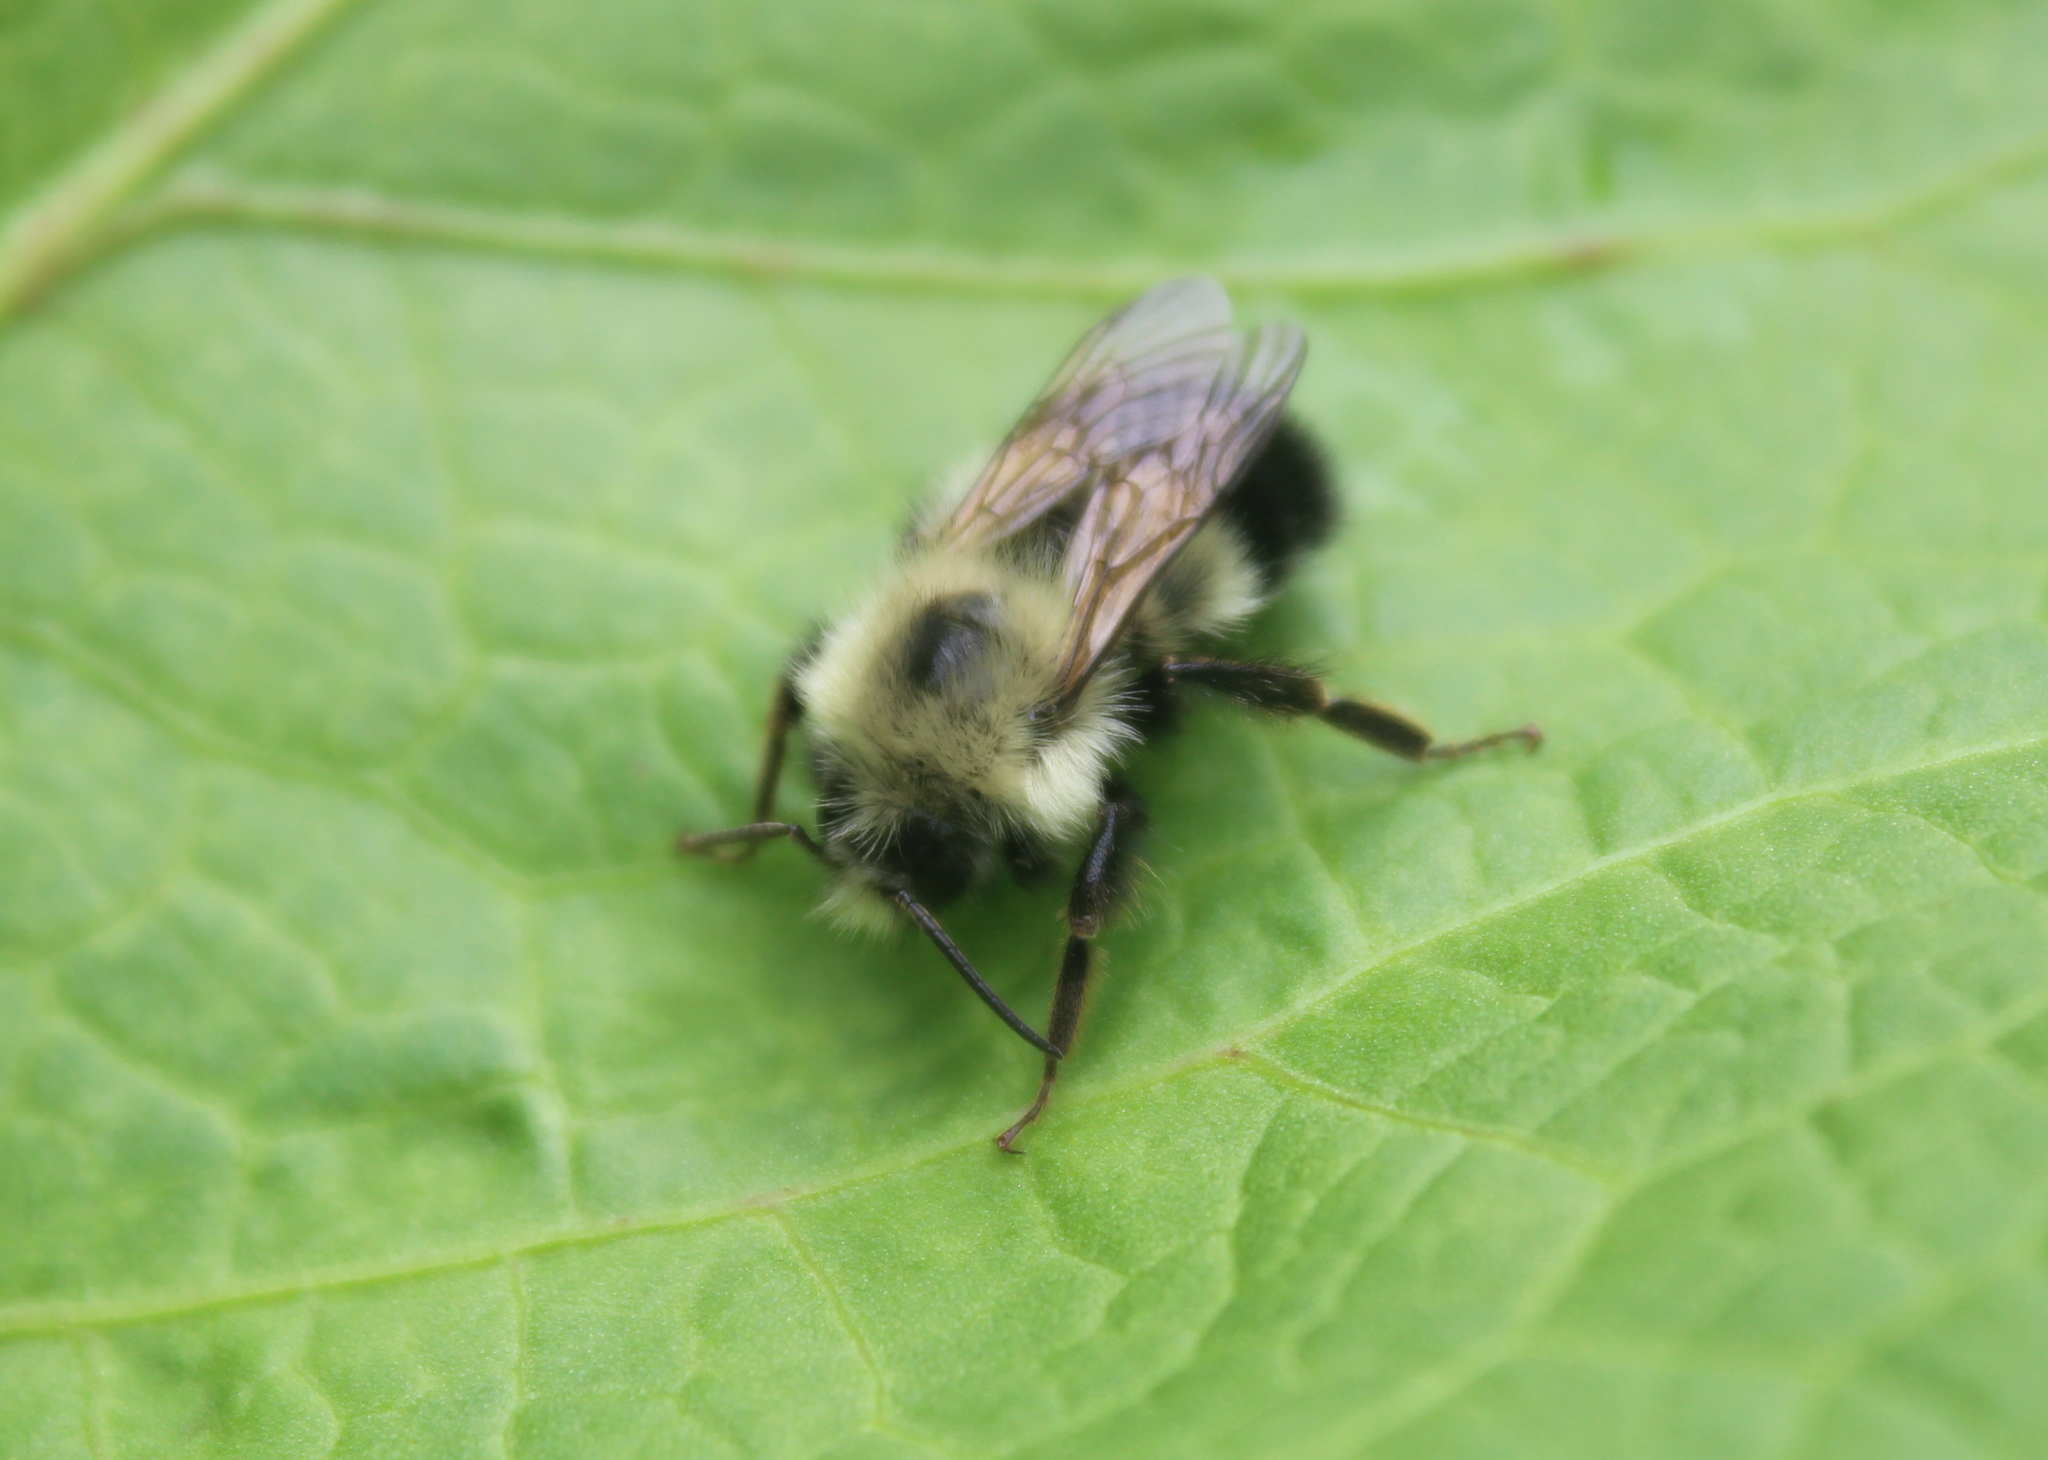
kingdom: Animalia
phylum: Arthropoda
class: Insecta
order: Hymenoptera
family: Apidae
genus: Bombus
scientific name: Bombus vagans
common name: Half-black bumble bee
